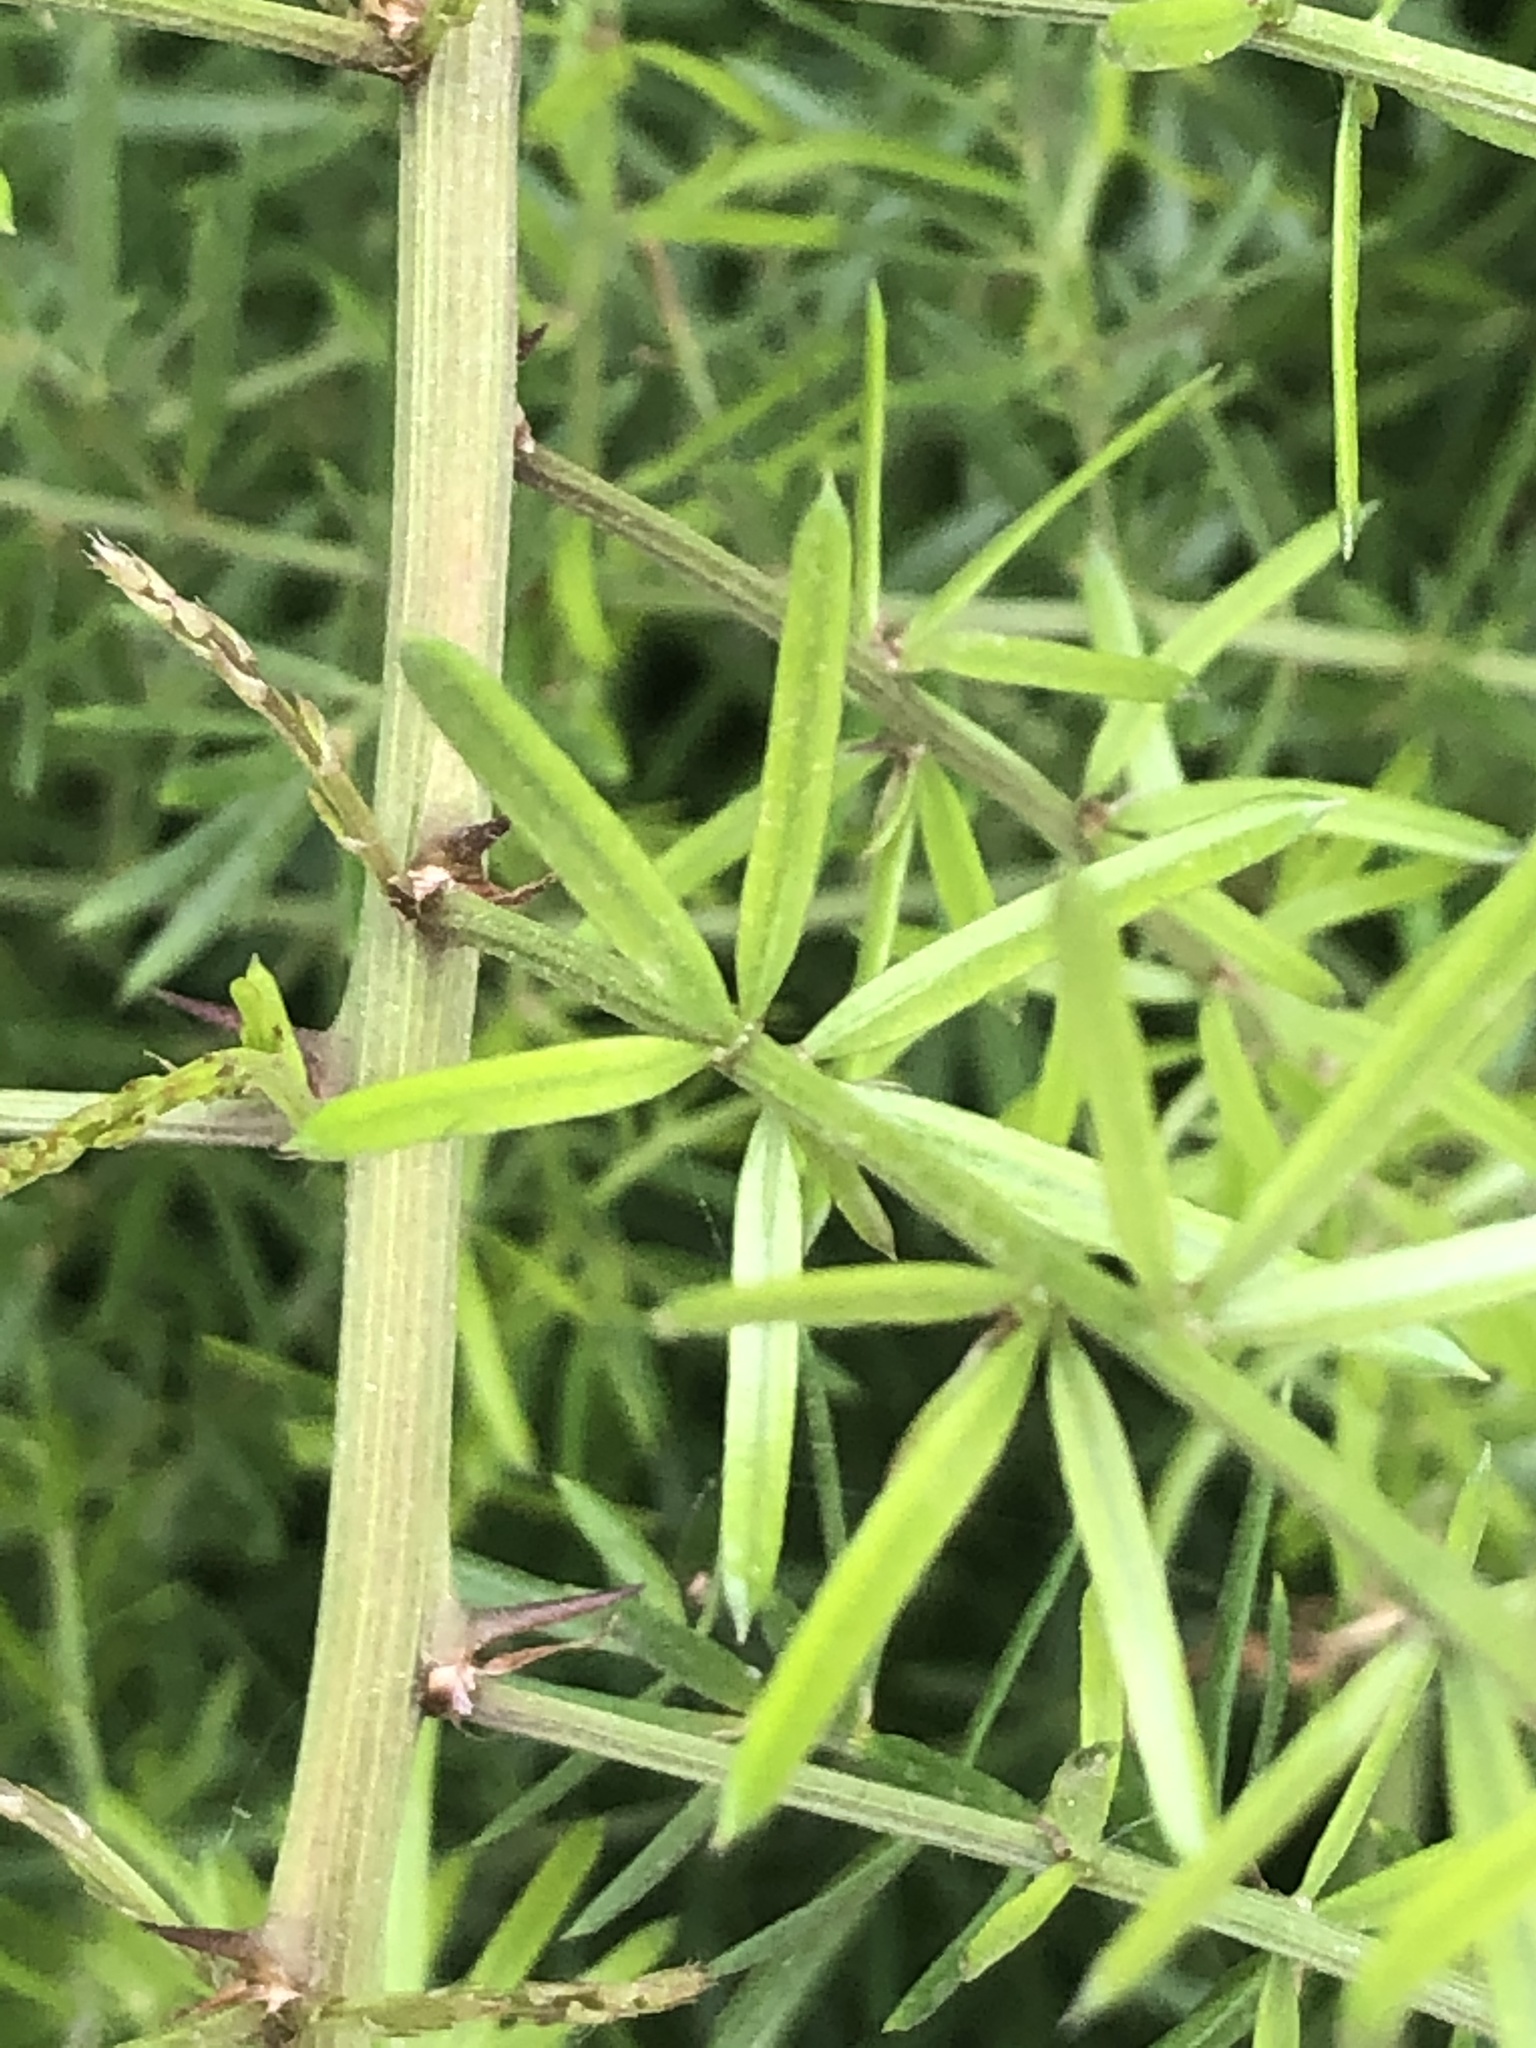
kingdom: Plantae
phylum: Tracheophyta
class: Liliopsida
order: Asparagales
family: Asparagaceae
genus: Asparagus
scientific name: Asparagus aethiopicus
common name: Sprenger's asparagus fern
